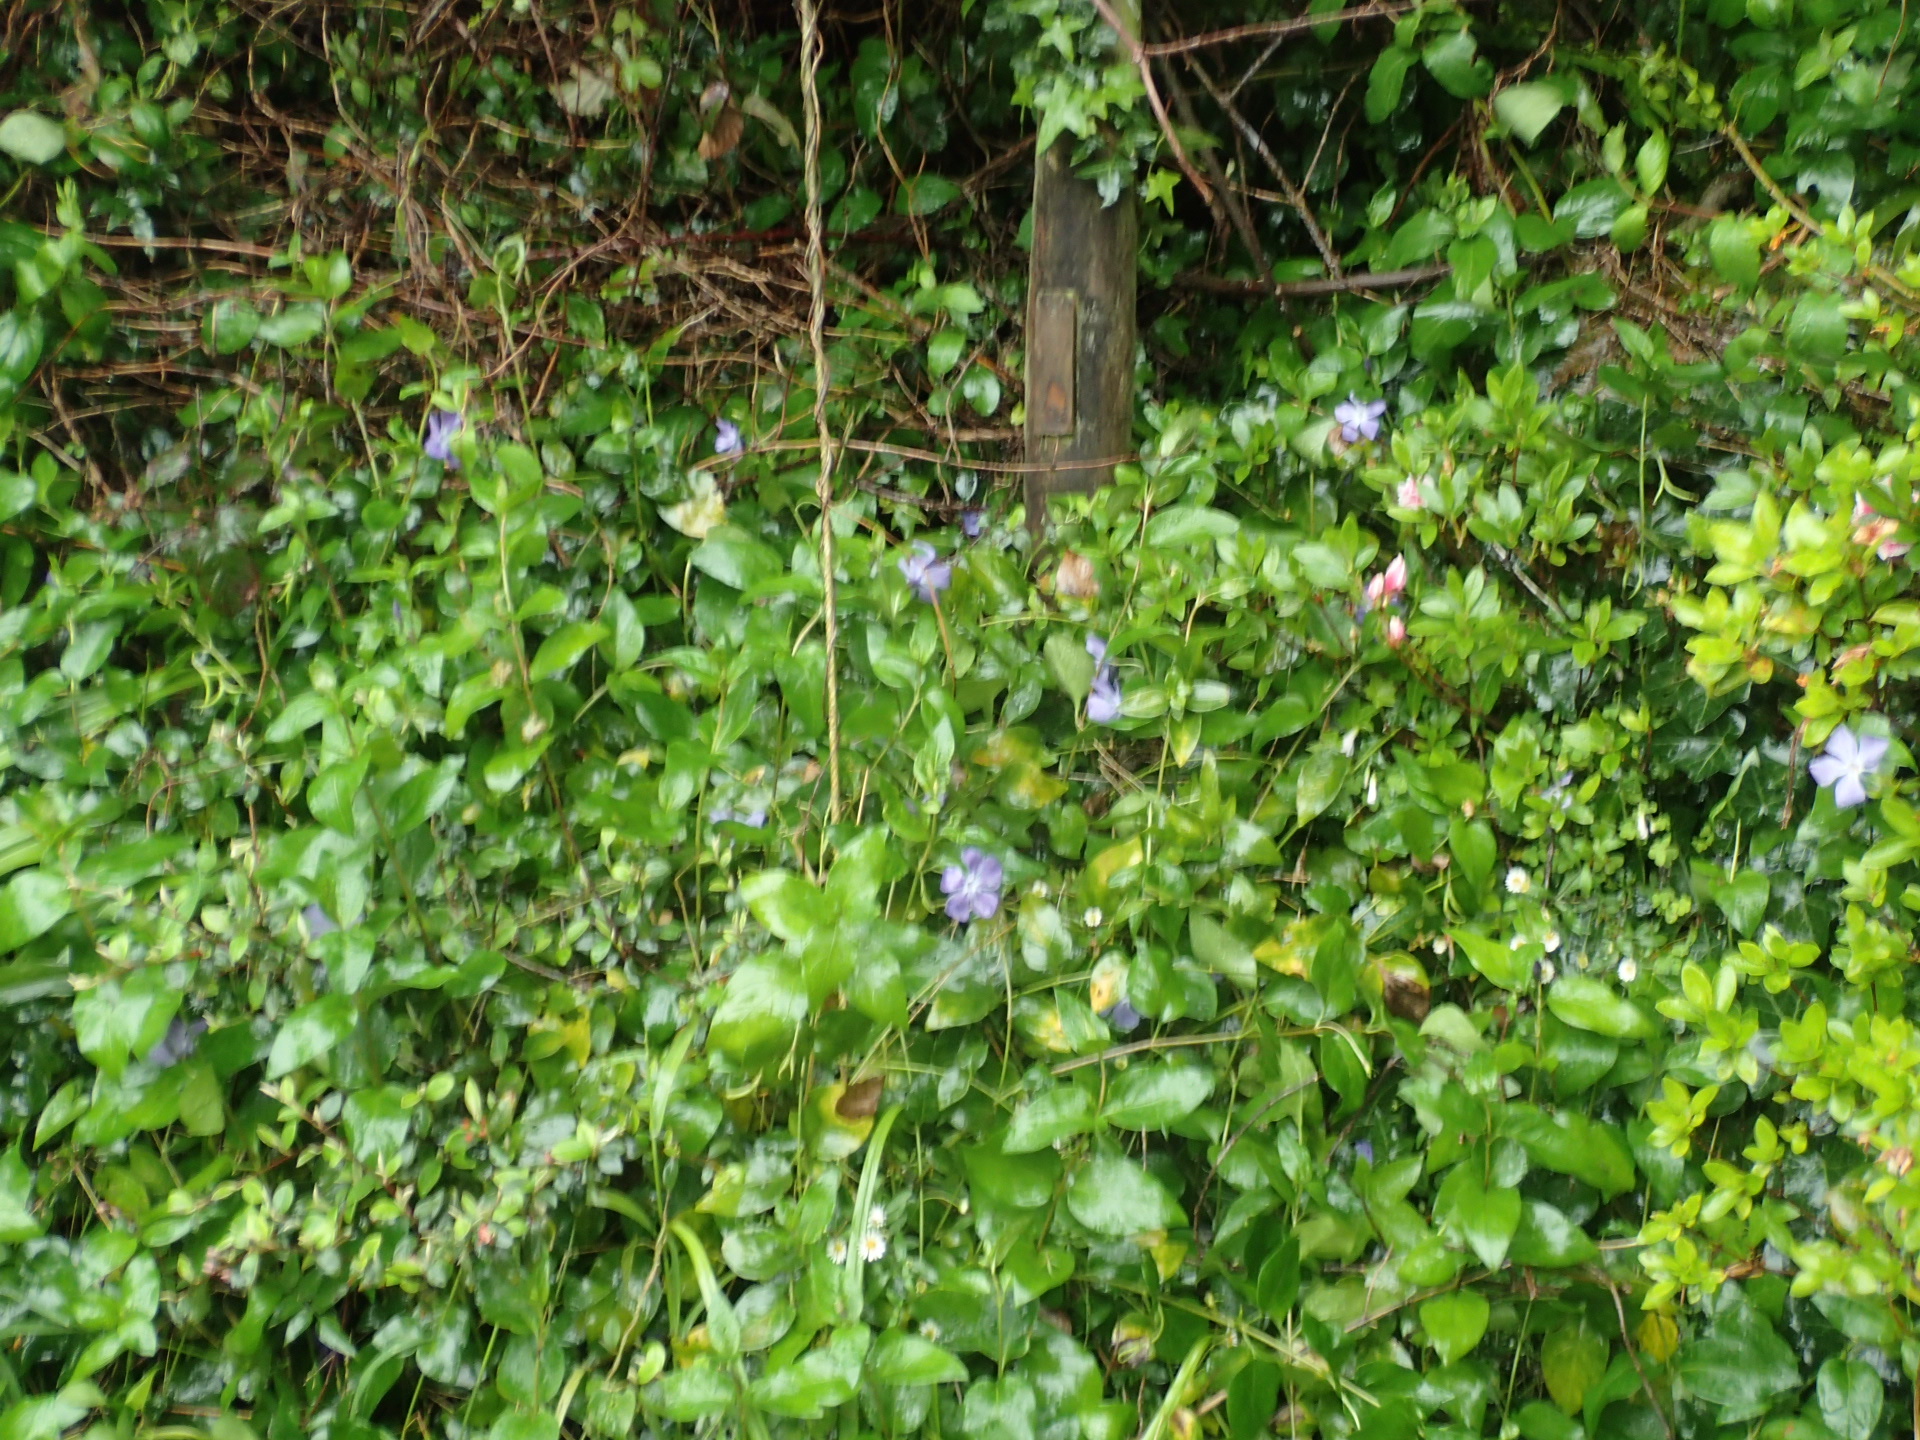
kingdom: Plantae
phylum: Tracheophyta
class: Magnoliopsida
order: Gentianales
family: Apocynaceae
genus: Vinca
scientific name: Vinca major
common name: Greater periwinkle
